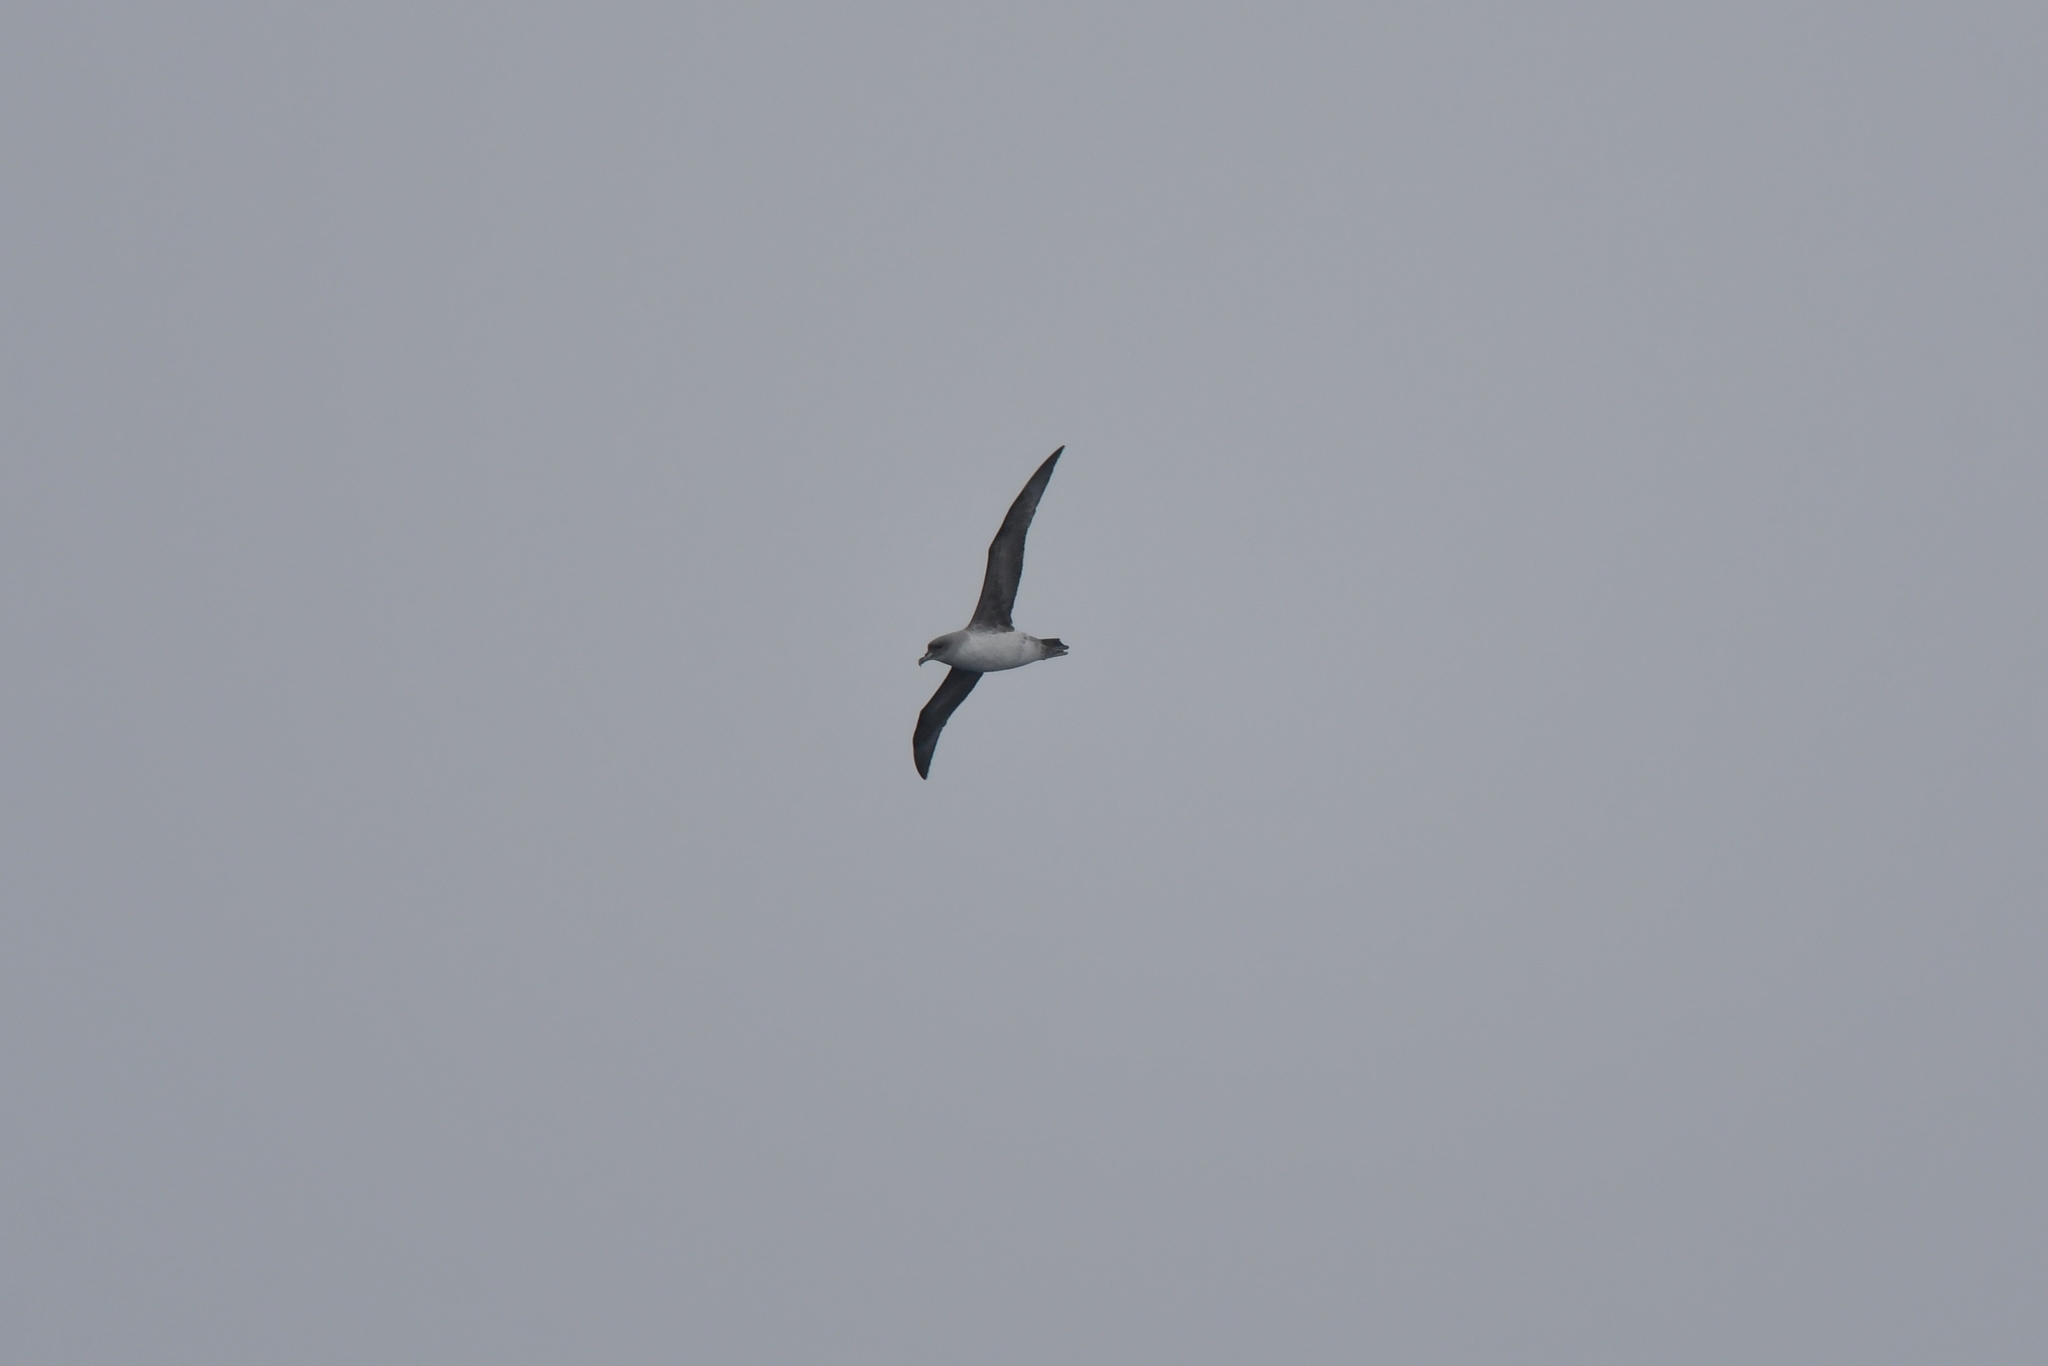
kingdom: Animalia
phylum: Chordata
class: Aves
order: Procellariiformes
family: Procellariidae
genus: Procellaria
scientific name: Procellaria cinerea
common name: Grey petrel
